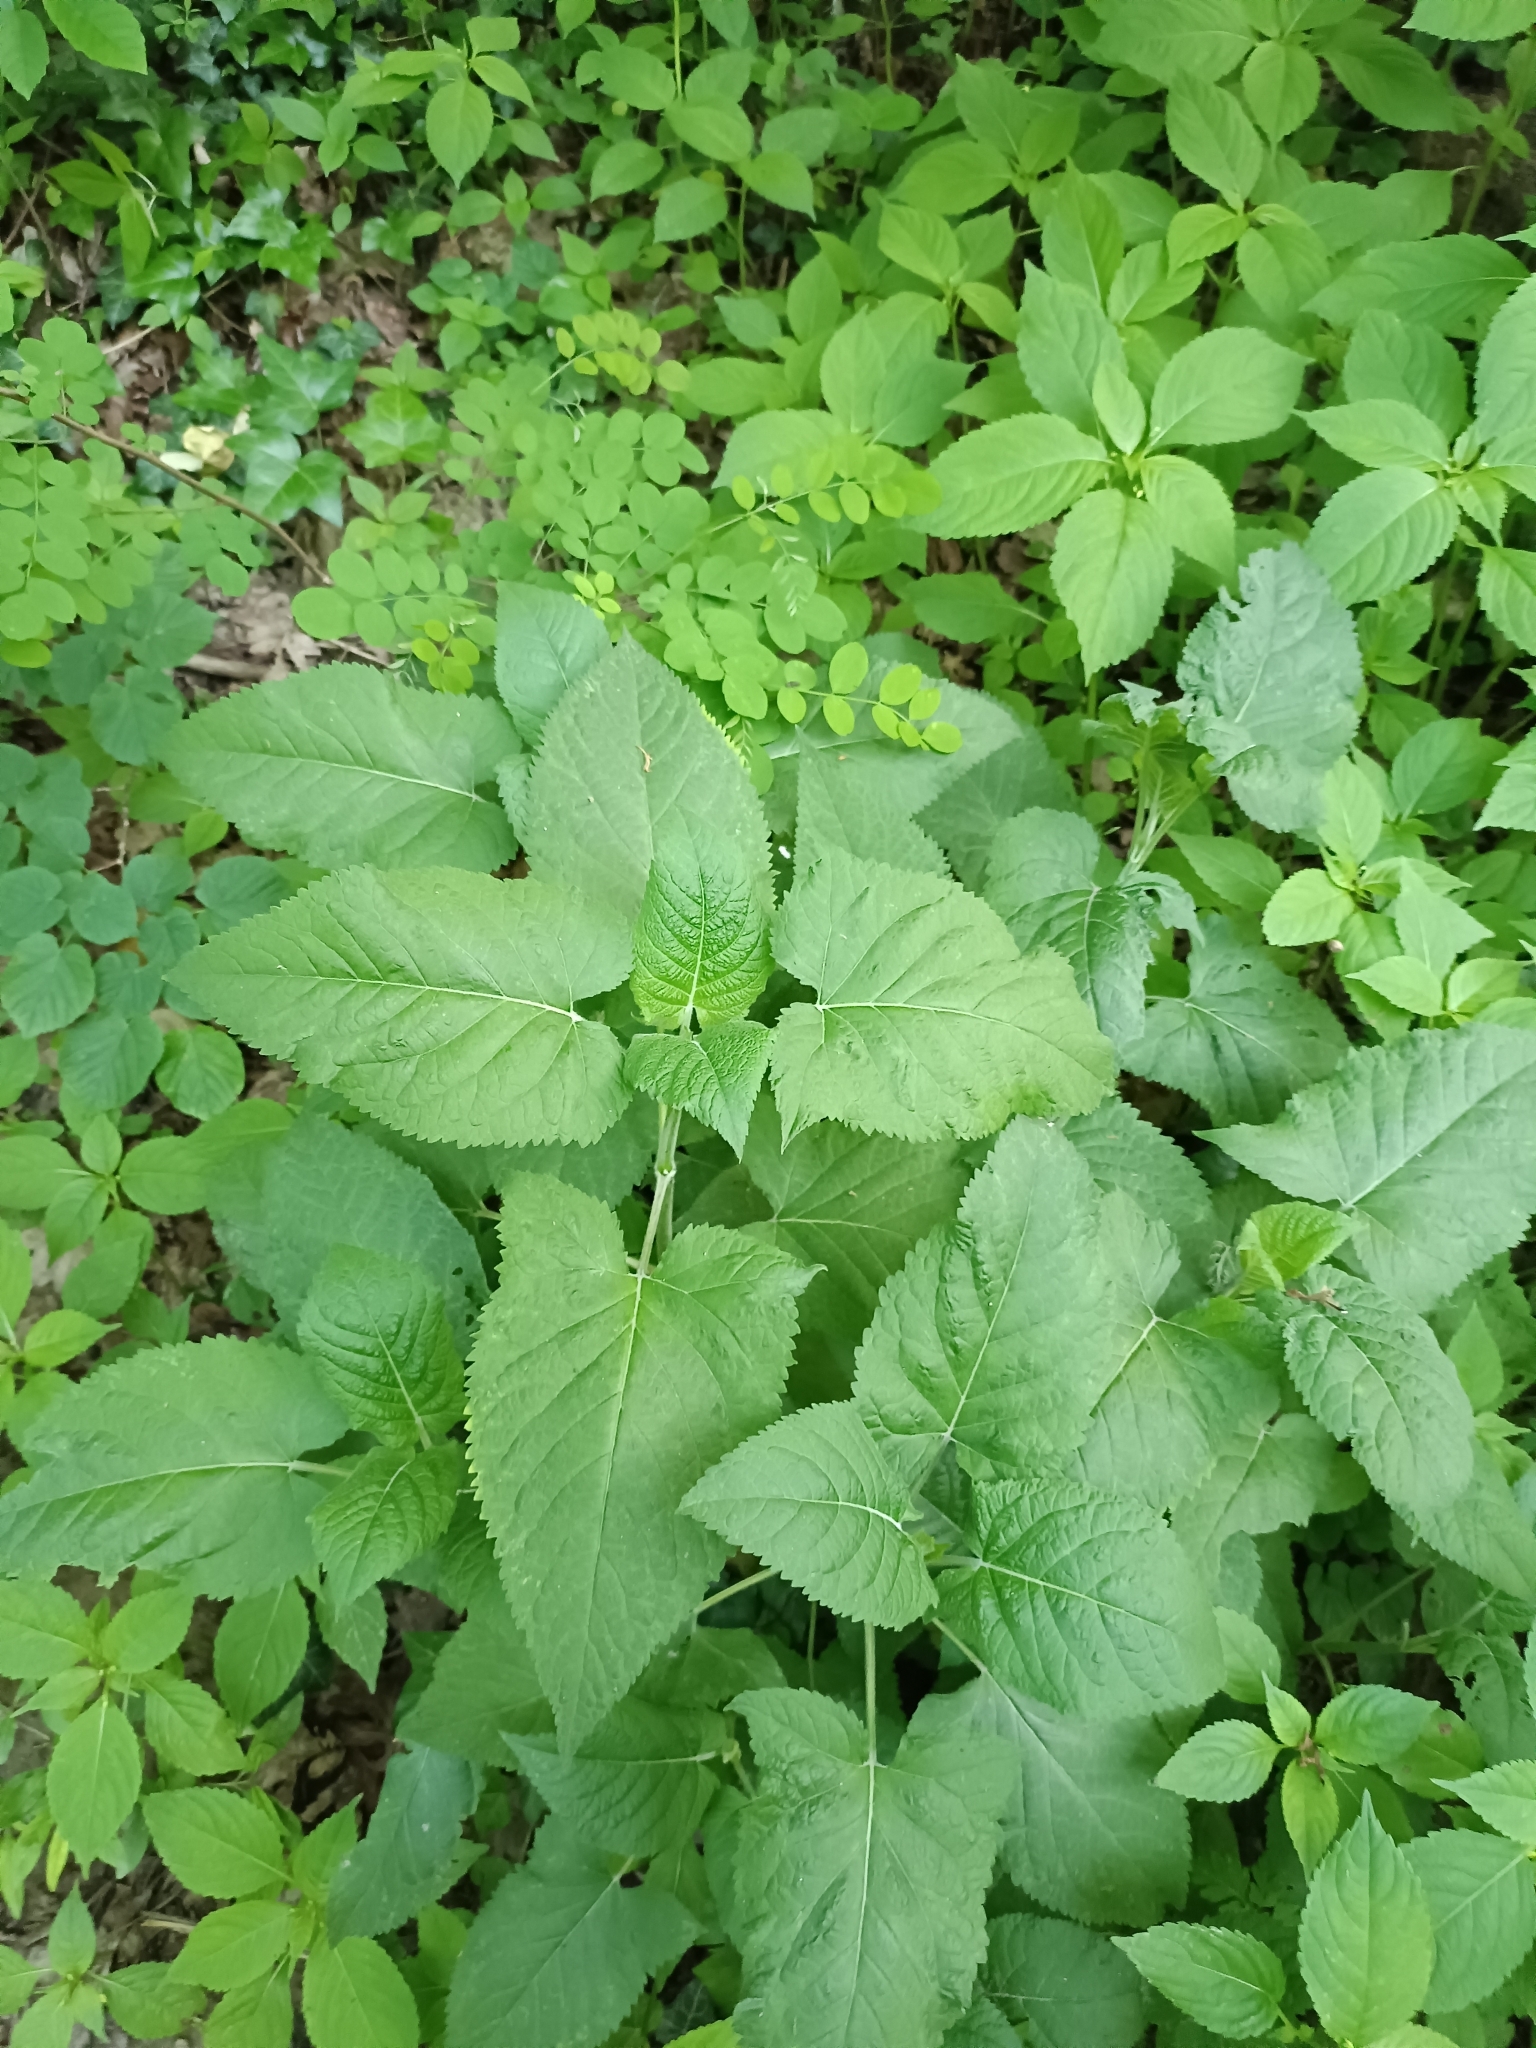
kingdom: Plantae
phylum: Tracheophyta
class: Magnoliopsida
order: Lamiales
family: Lamiaceae
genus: Salvia
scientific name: Salvia glutinosa
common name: Sticky clary
